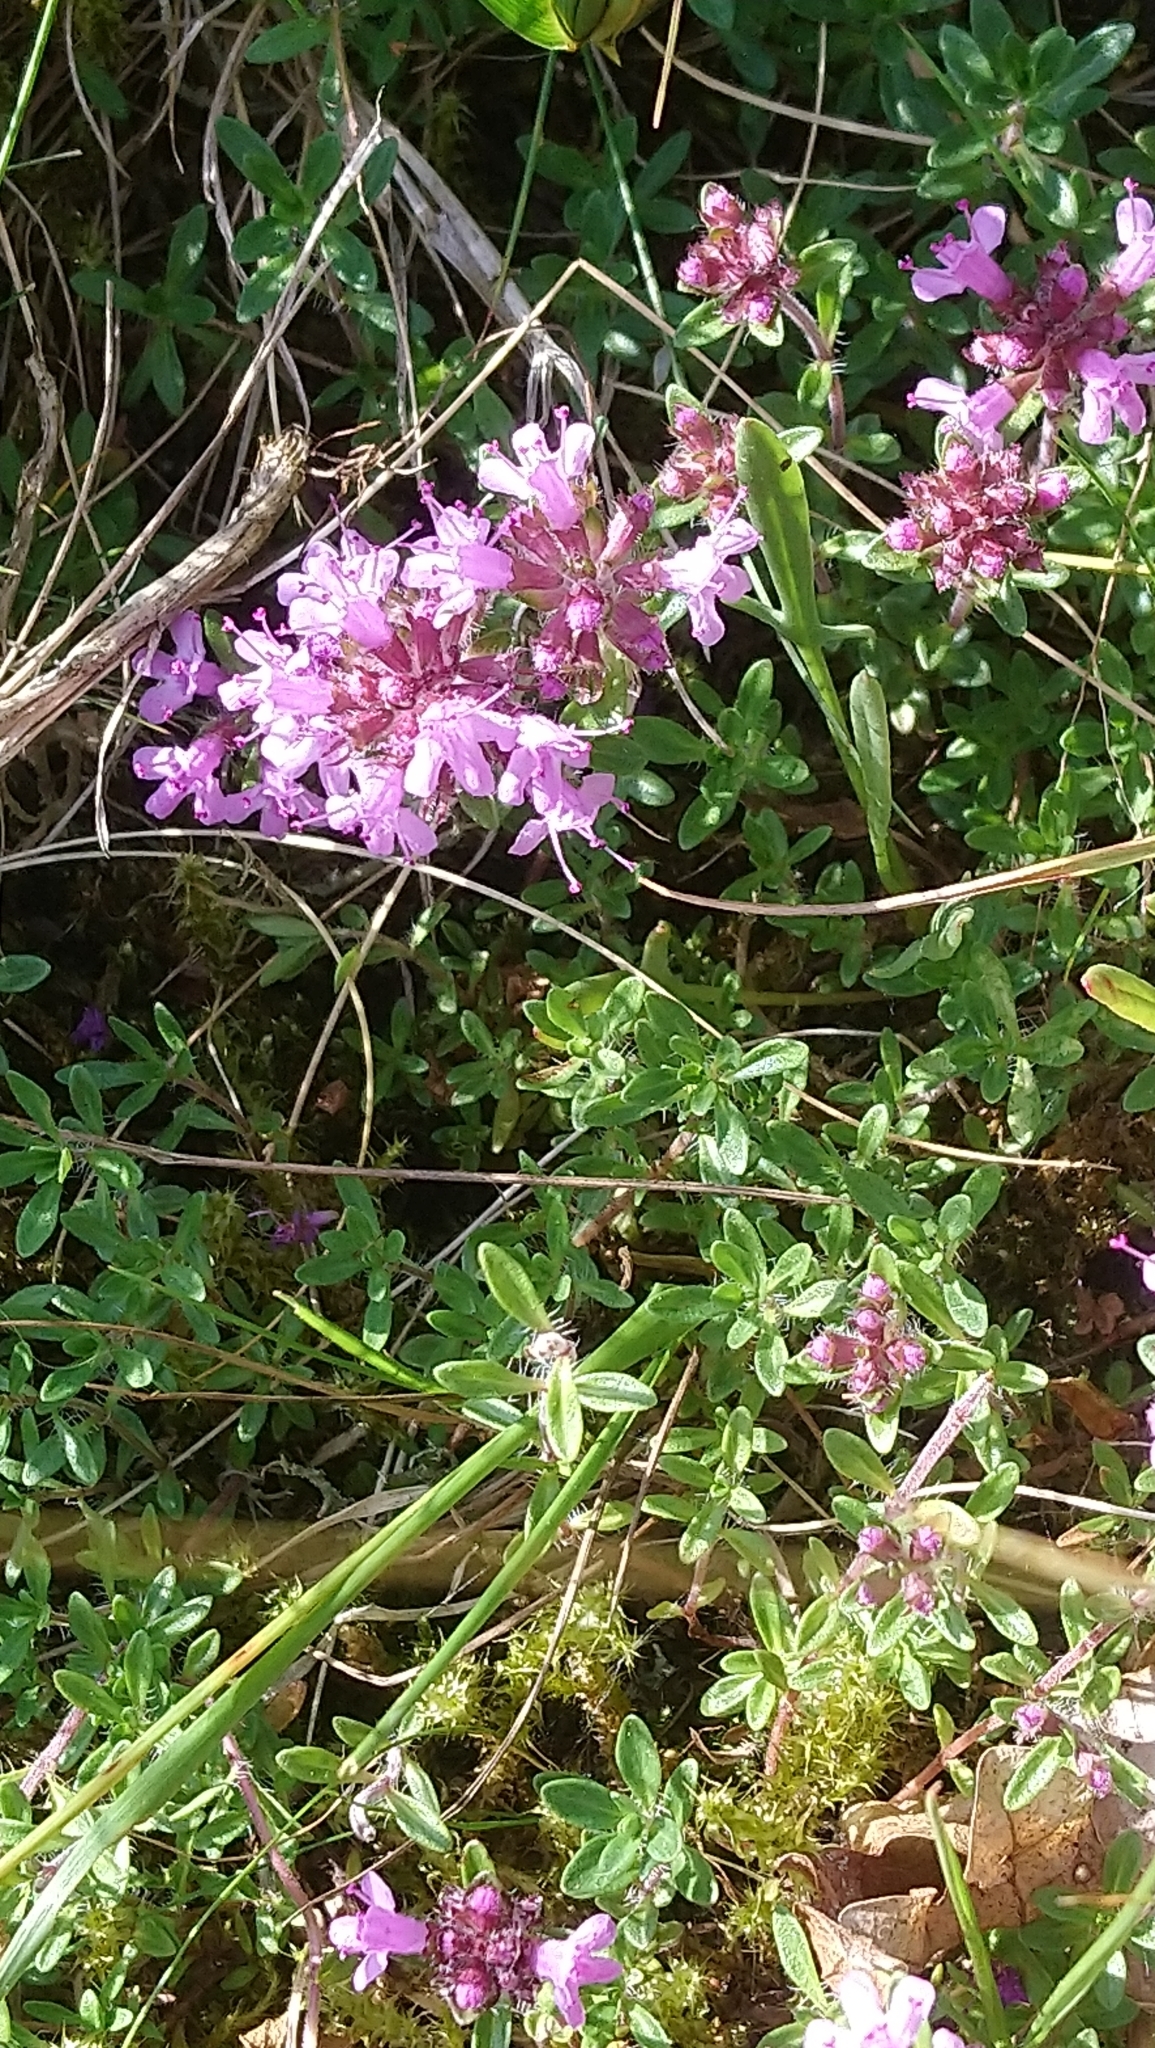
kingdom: Plantae
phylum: Tracheophyta
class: Magnoliopsida
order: Lamiales
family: Lamiaceae
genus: Thymus
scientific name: Thymus serpyllum
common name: Breckland thyme
